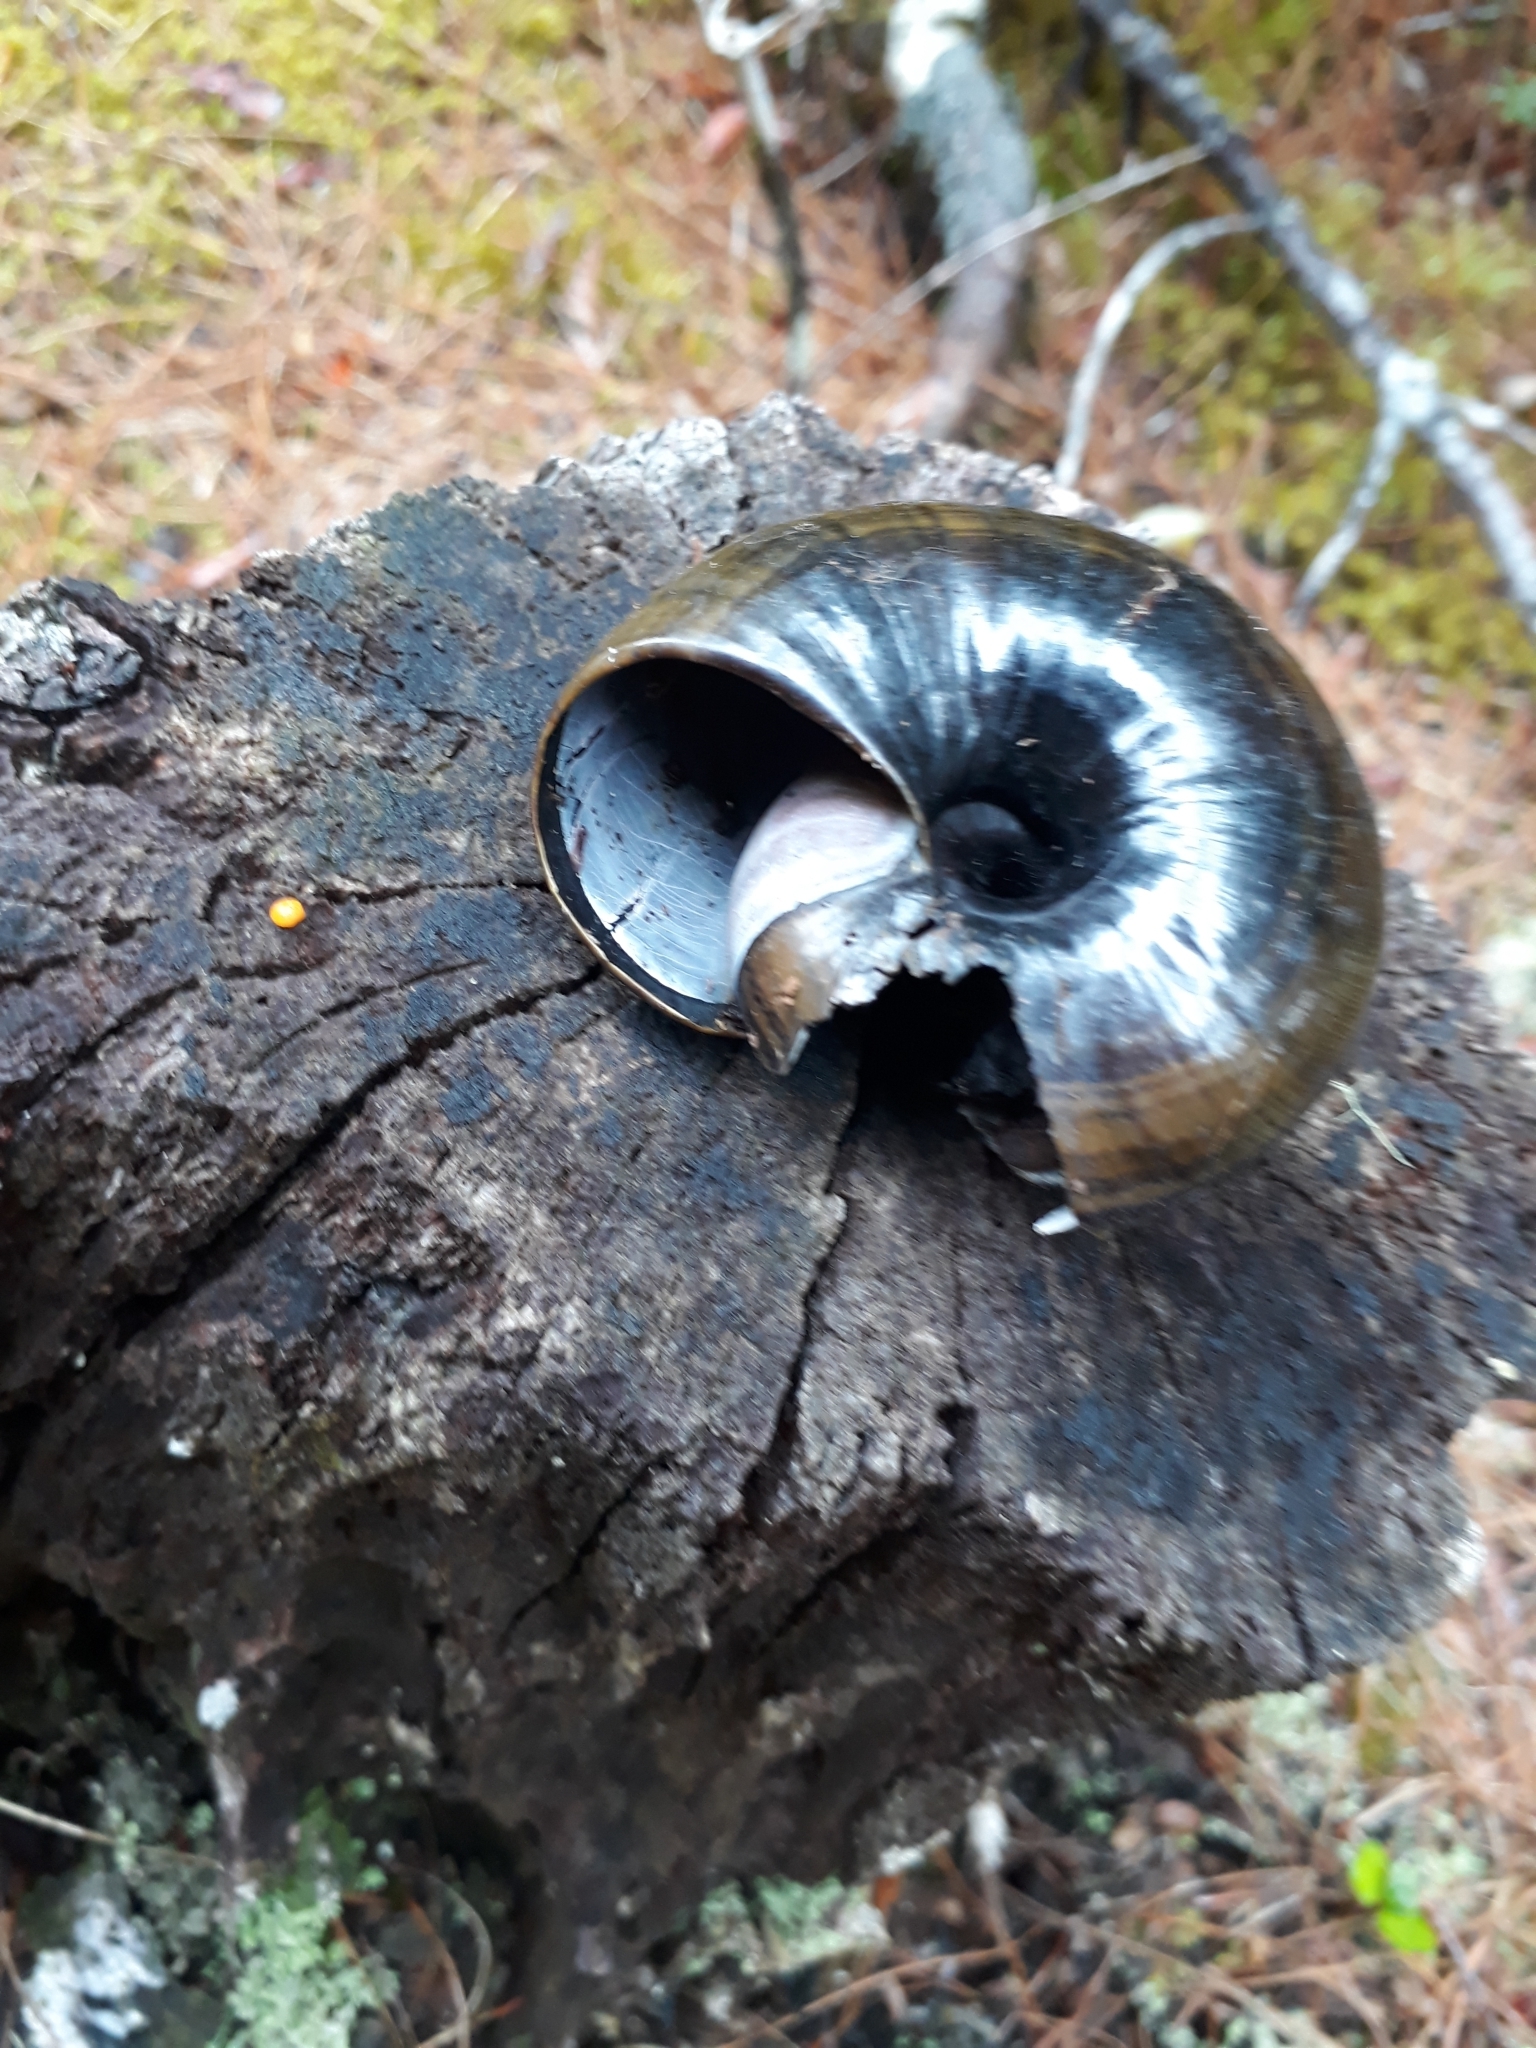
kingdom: Animalia
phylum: Mollusca
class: Gastropoda
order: Stylommatophora
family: Rhytididae
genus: Powelliphanta
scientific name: Powelliphanta hochstetteri
